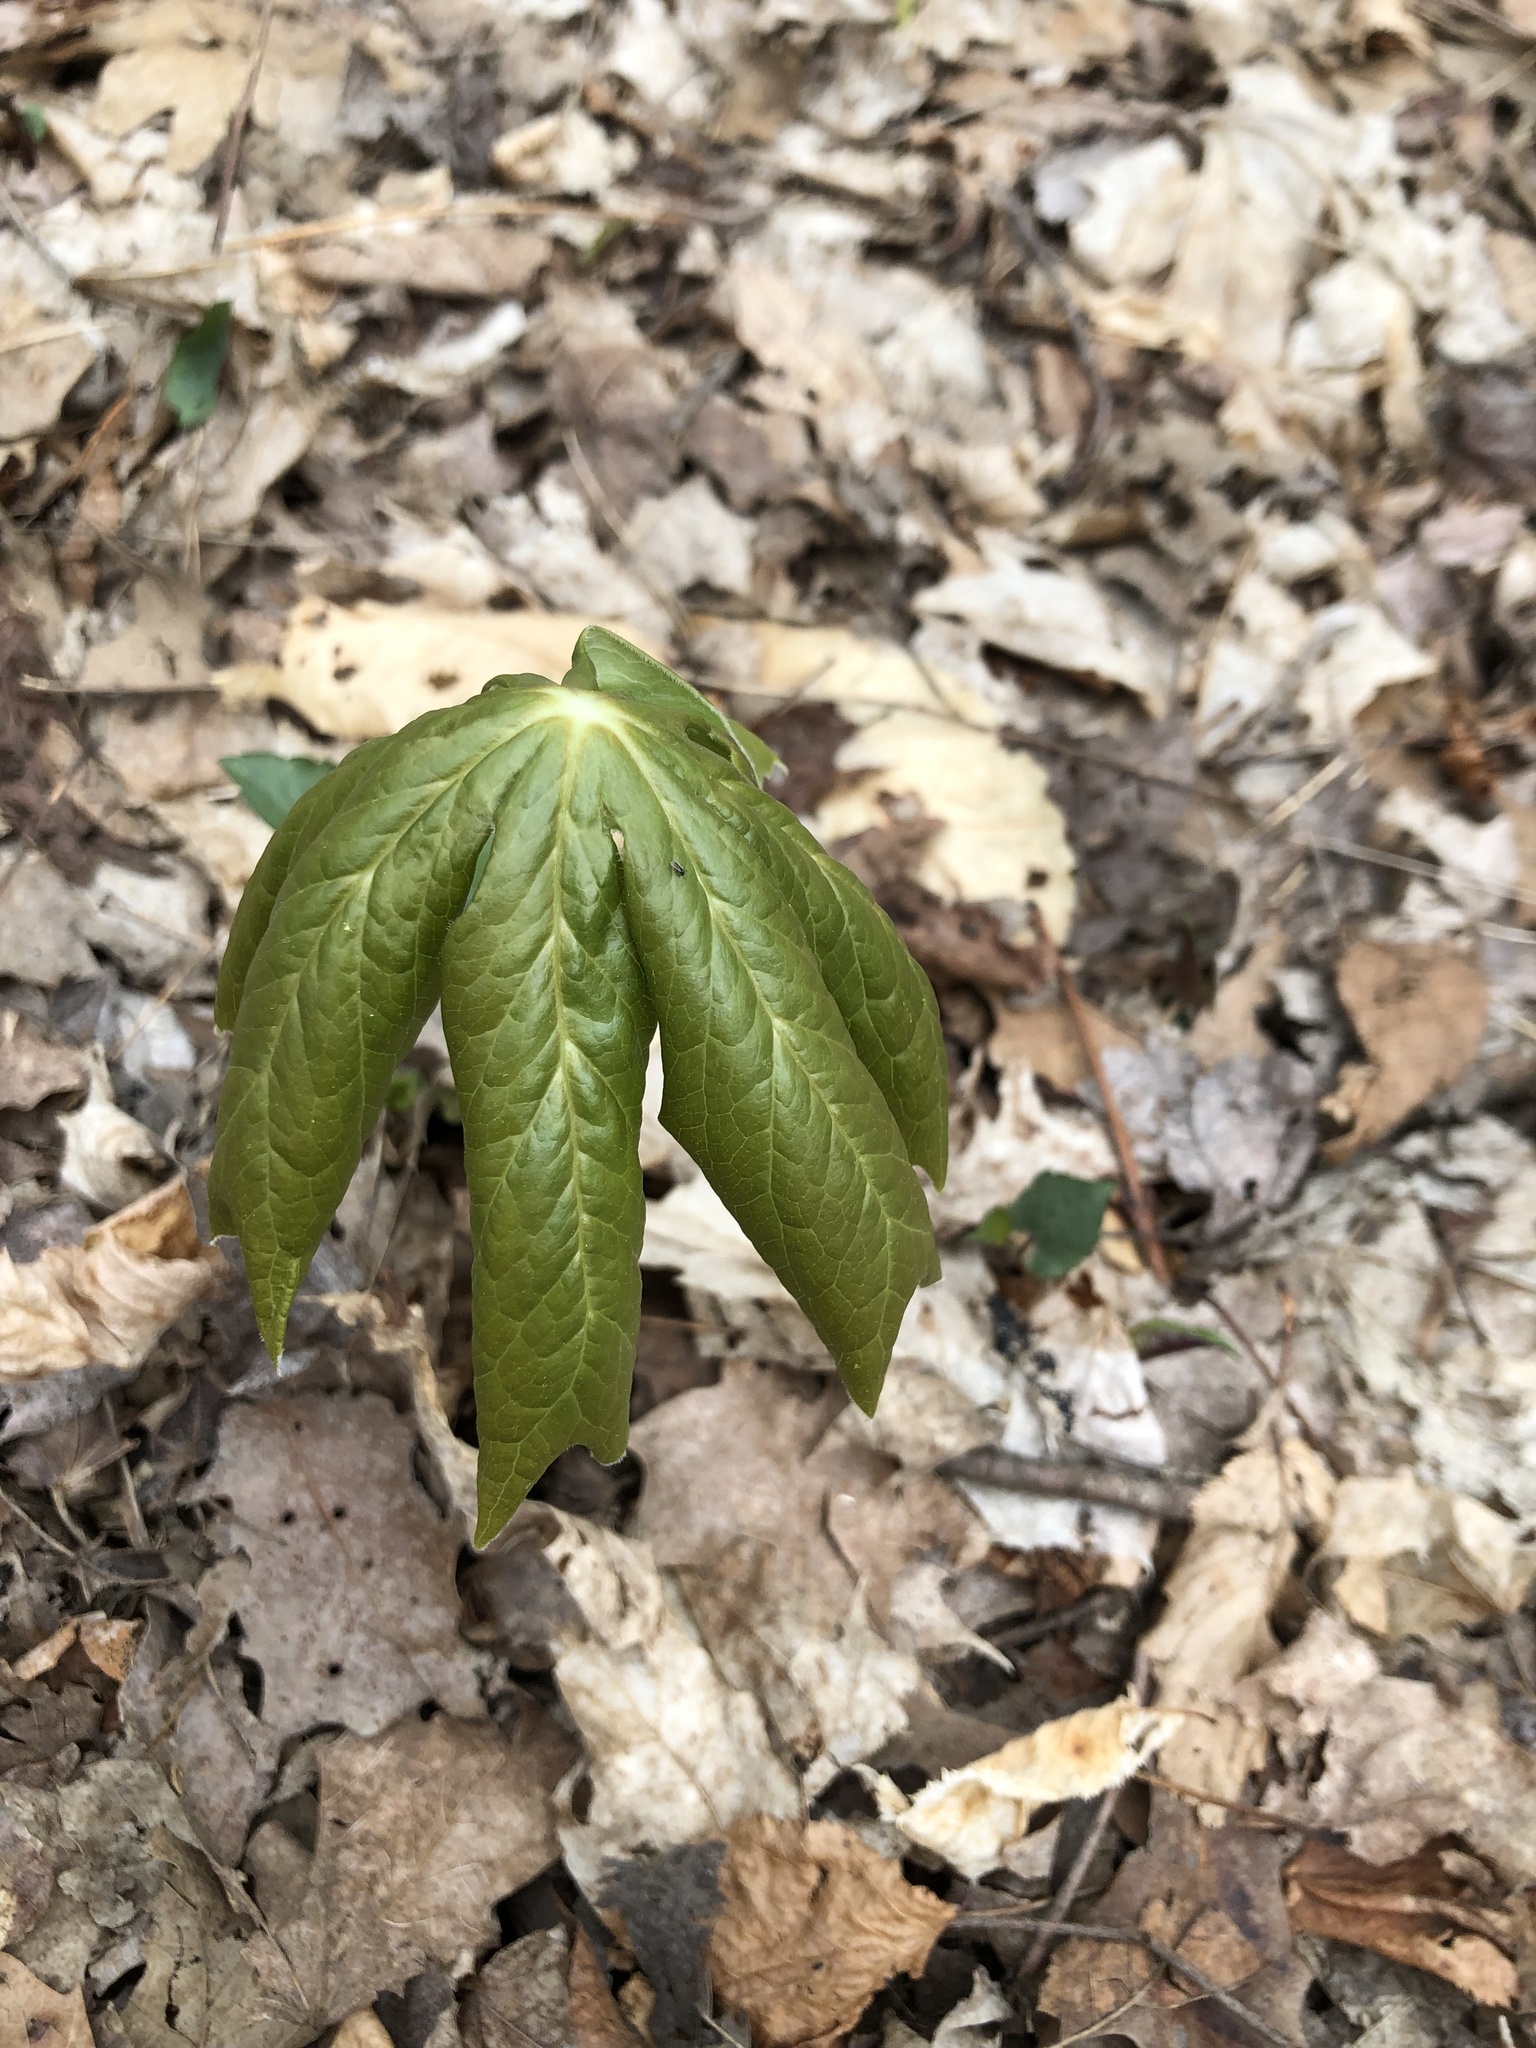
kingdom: Plantae
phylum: Tracheophyta
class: Magnoliopsida
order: Ranunculales
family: Berberidaceae
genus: Podophyllum
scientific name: Podophyllum peltatum
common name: Wild mandrake
